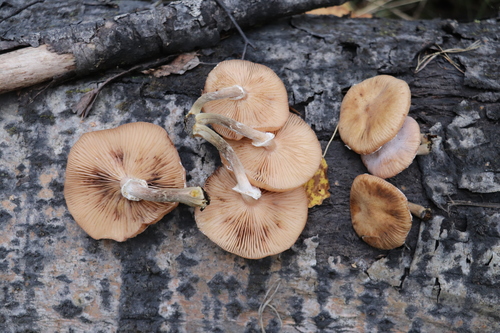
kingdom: Fungi
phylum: Basidiomycota
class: Agaricomycetes
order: Agaricales
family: Physalacriaceae
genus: Armillaria
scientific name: Armillaria mellea
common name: Honey fungus
